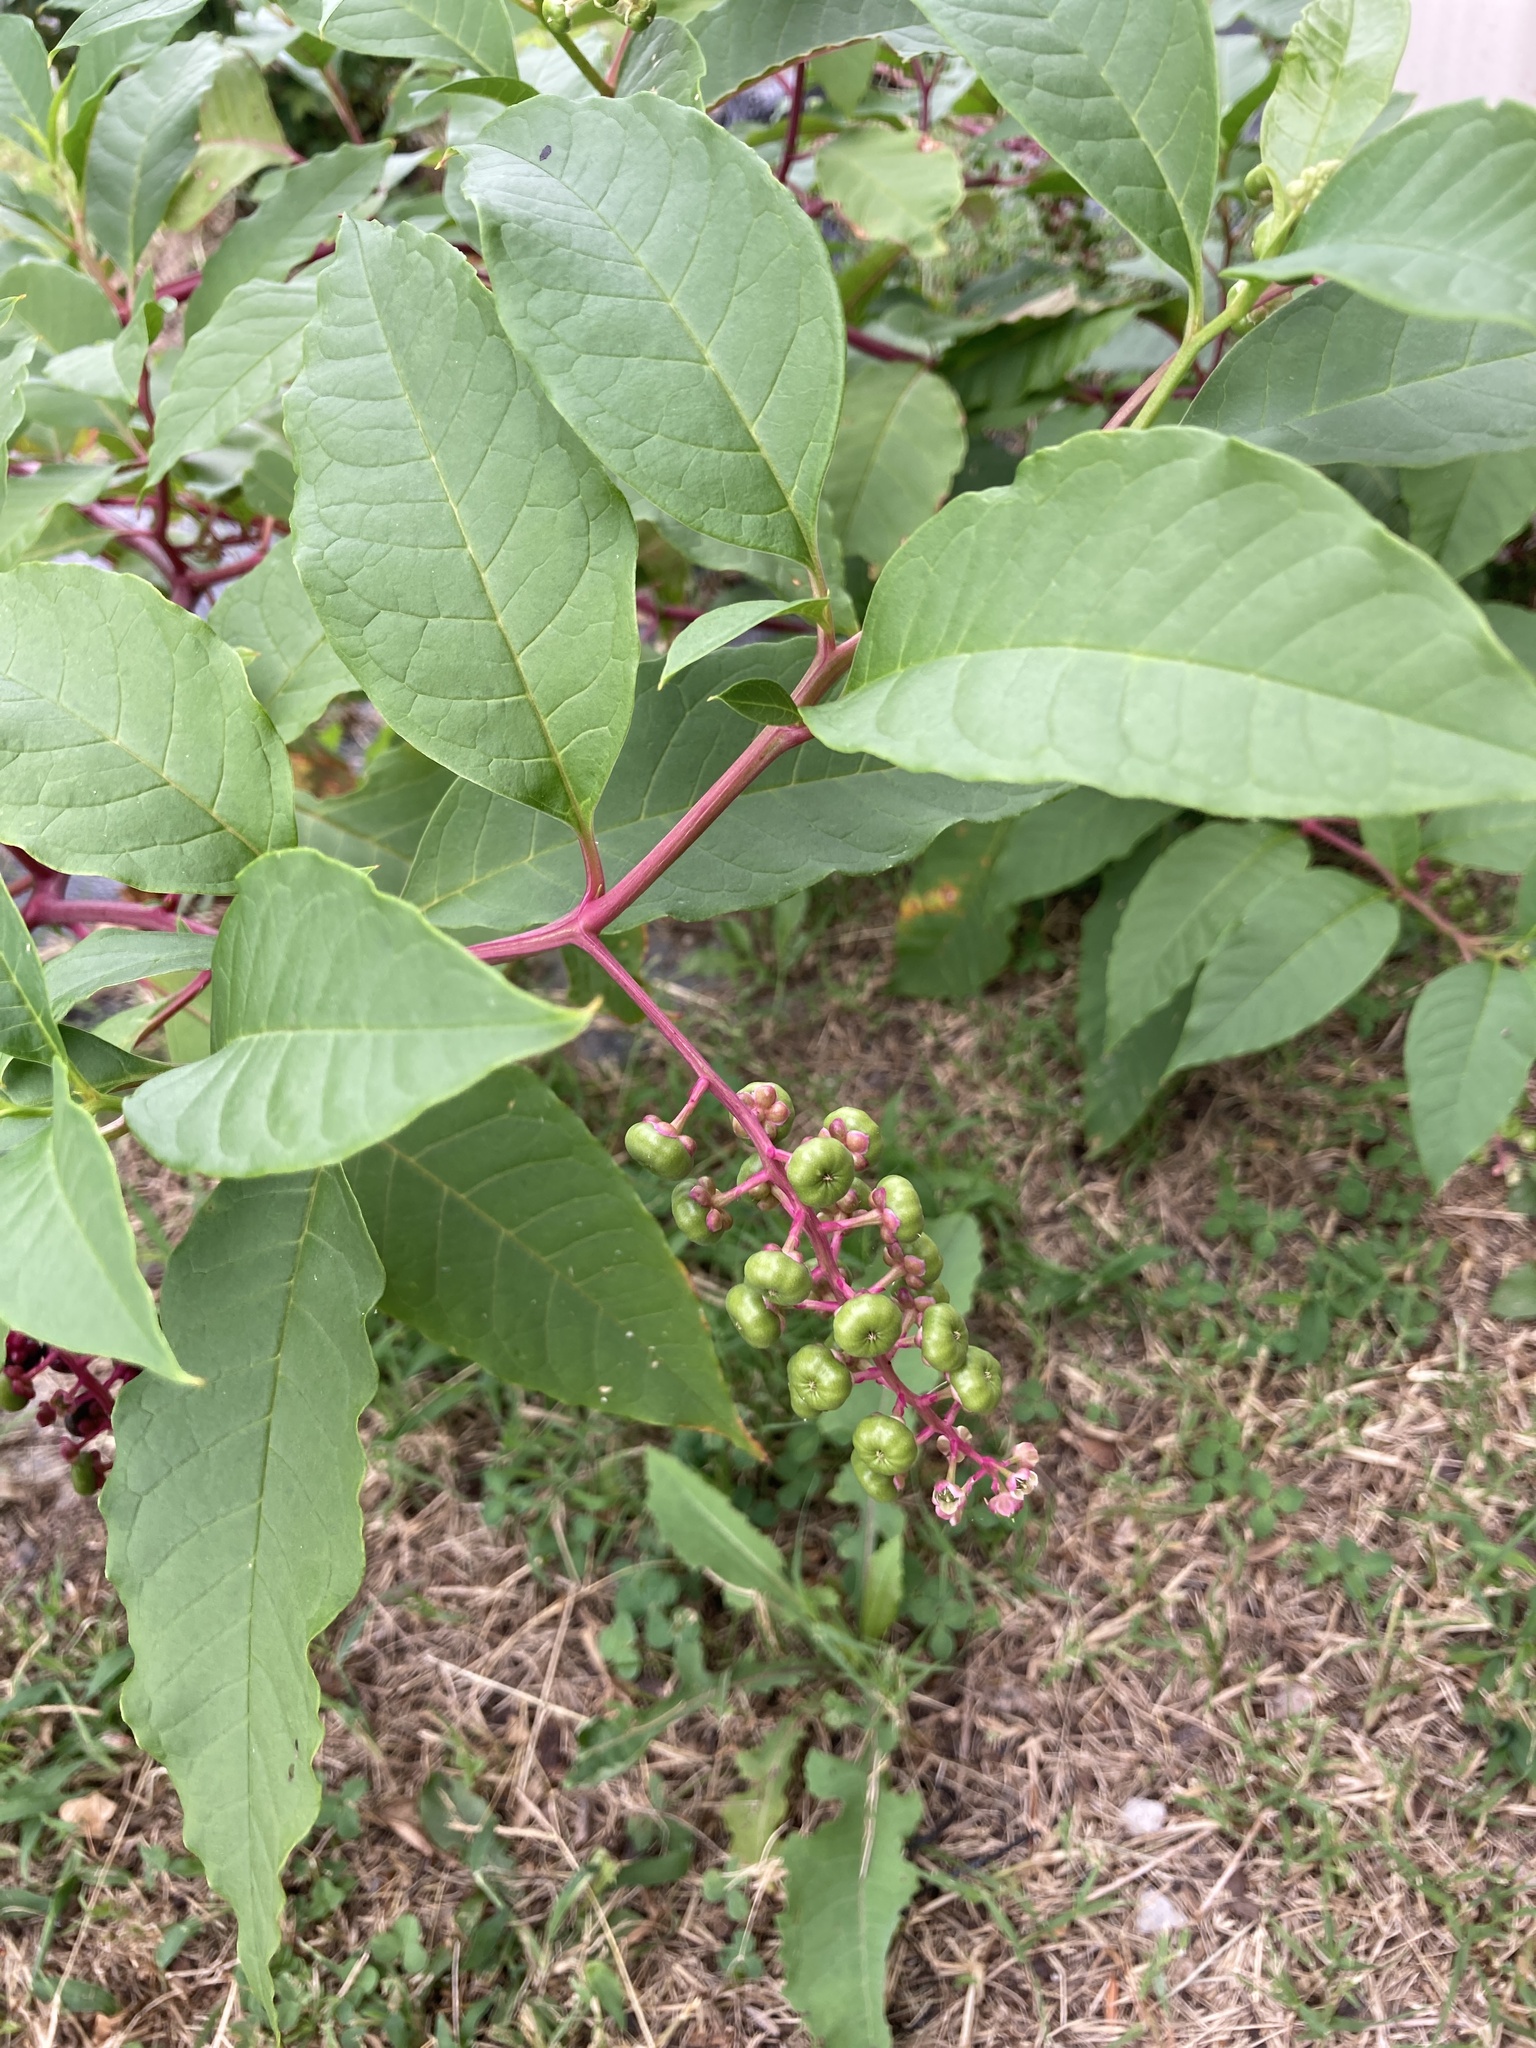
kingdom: Plantae
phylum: Tracheophyta
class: Magnoliopsida
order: Caryophyllales
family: Phytolaccaceae
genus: Phytolacca
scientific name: Phytolacca americana
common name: American pokeweed
